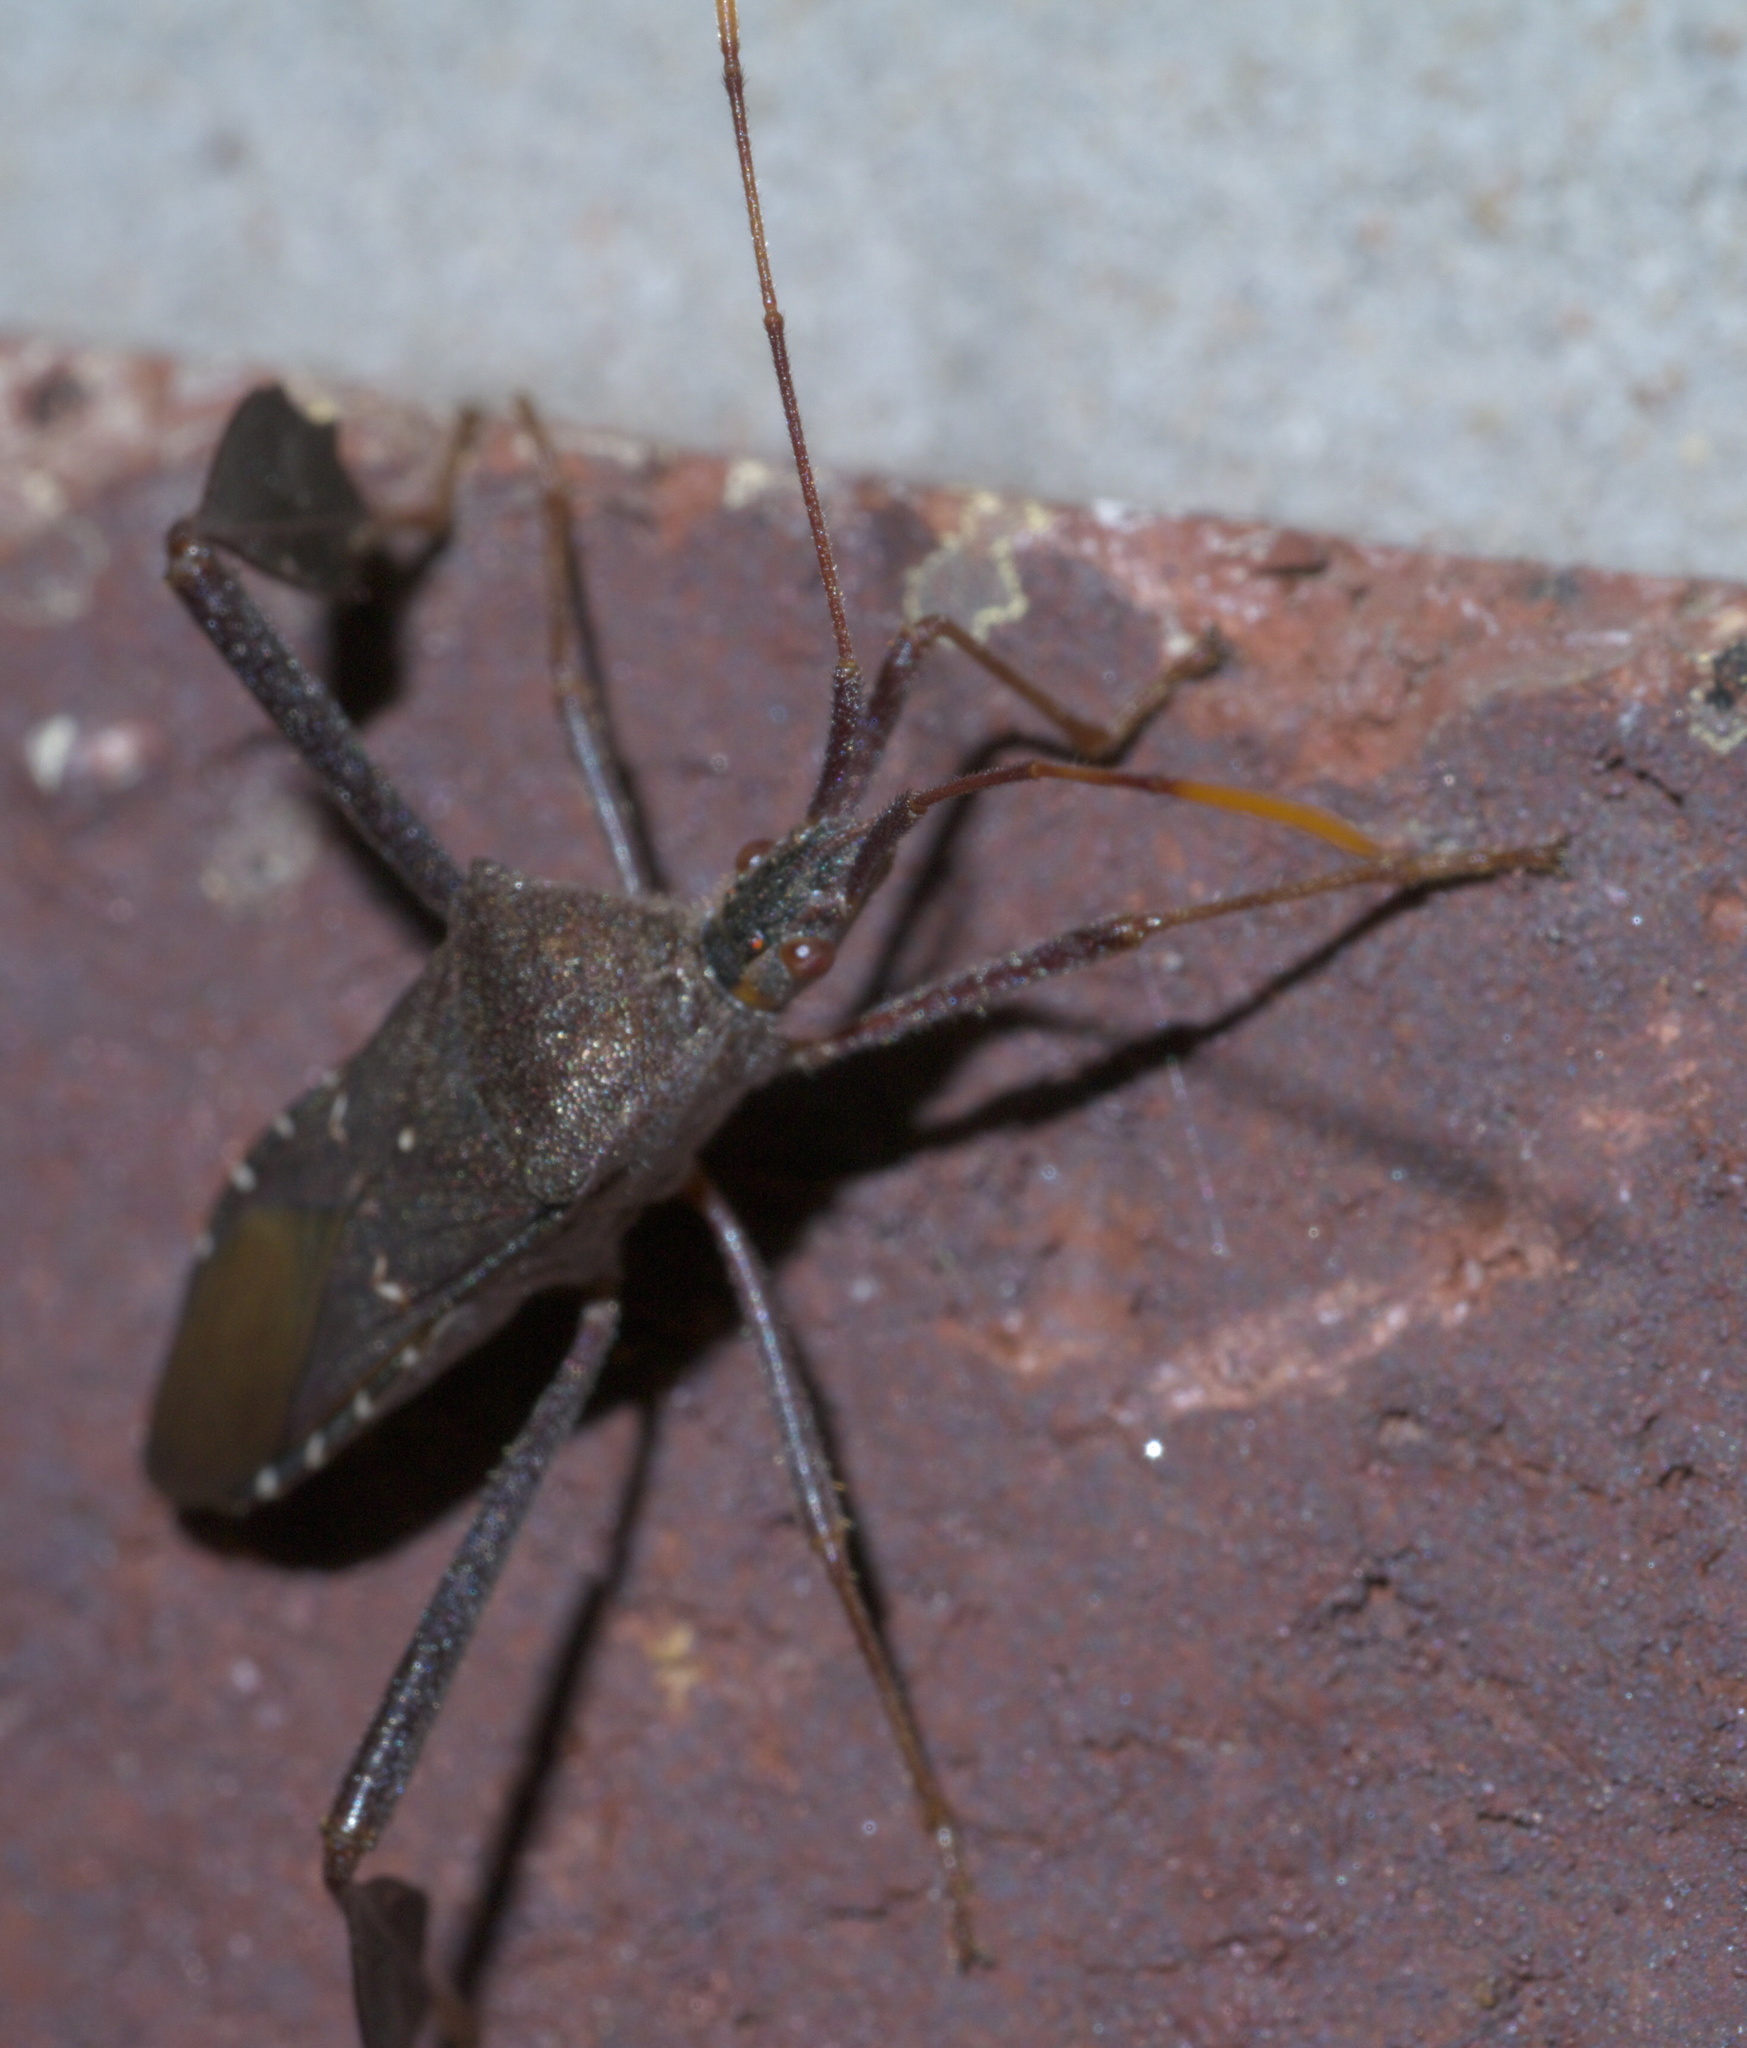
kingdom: Animalia
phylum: Arthropoda
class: Insecta
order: Hemiptera
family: Coreidae
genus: Leptoglossus
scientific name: Leptoglossus oppositus
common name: Northern leaf-footed bug
